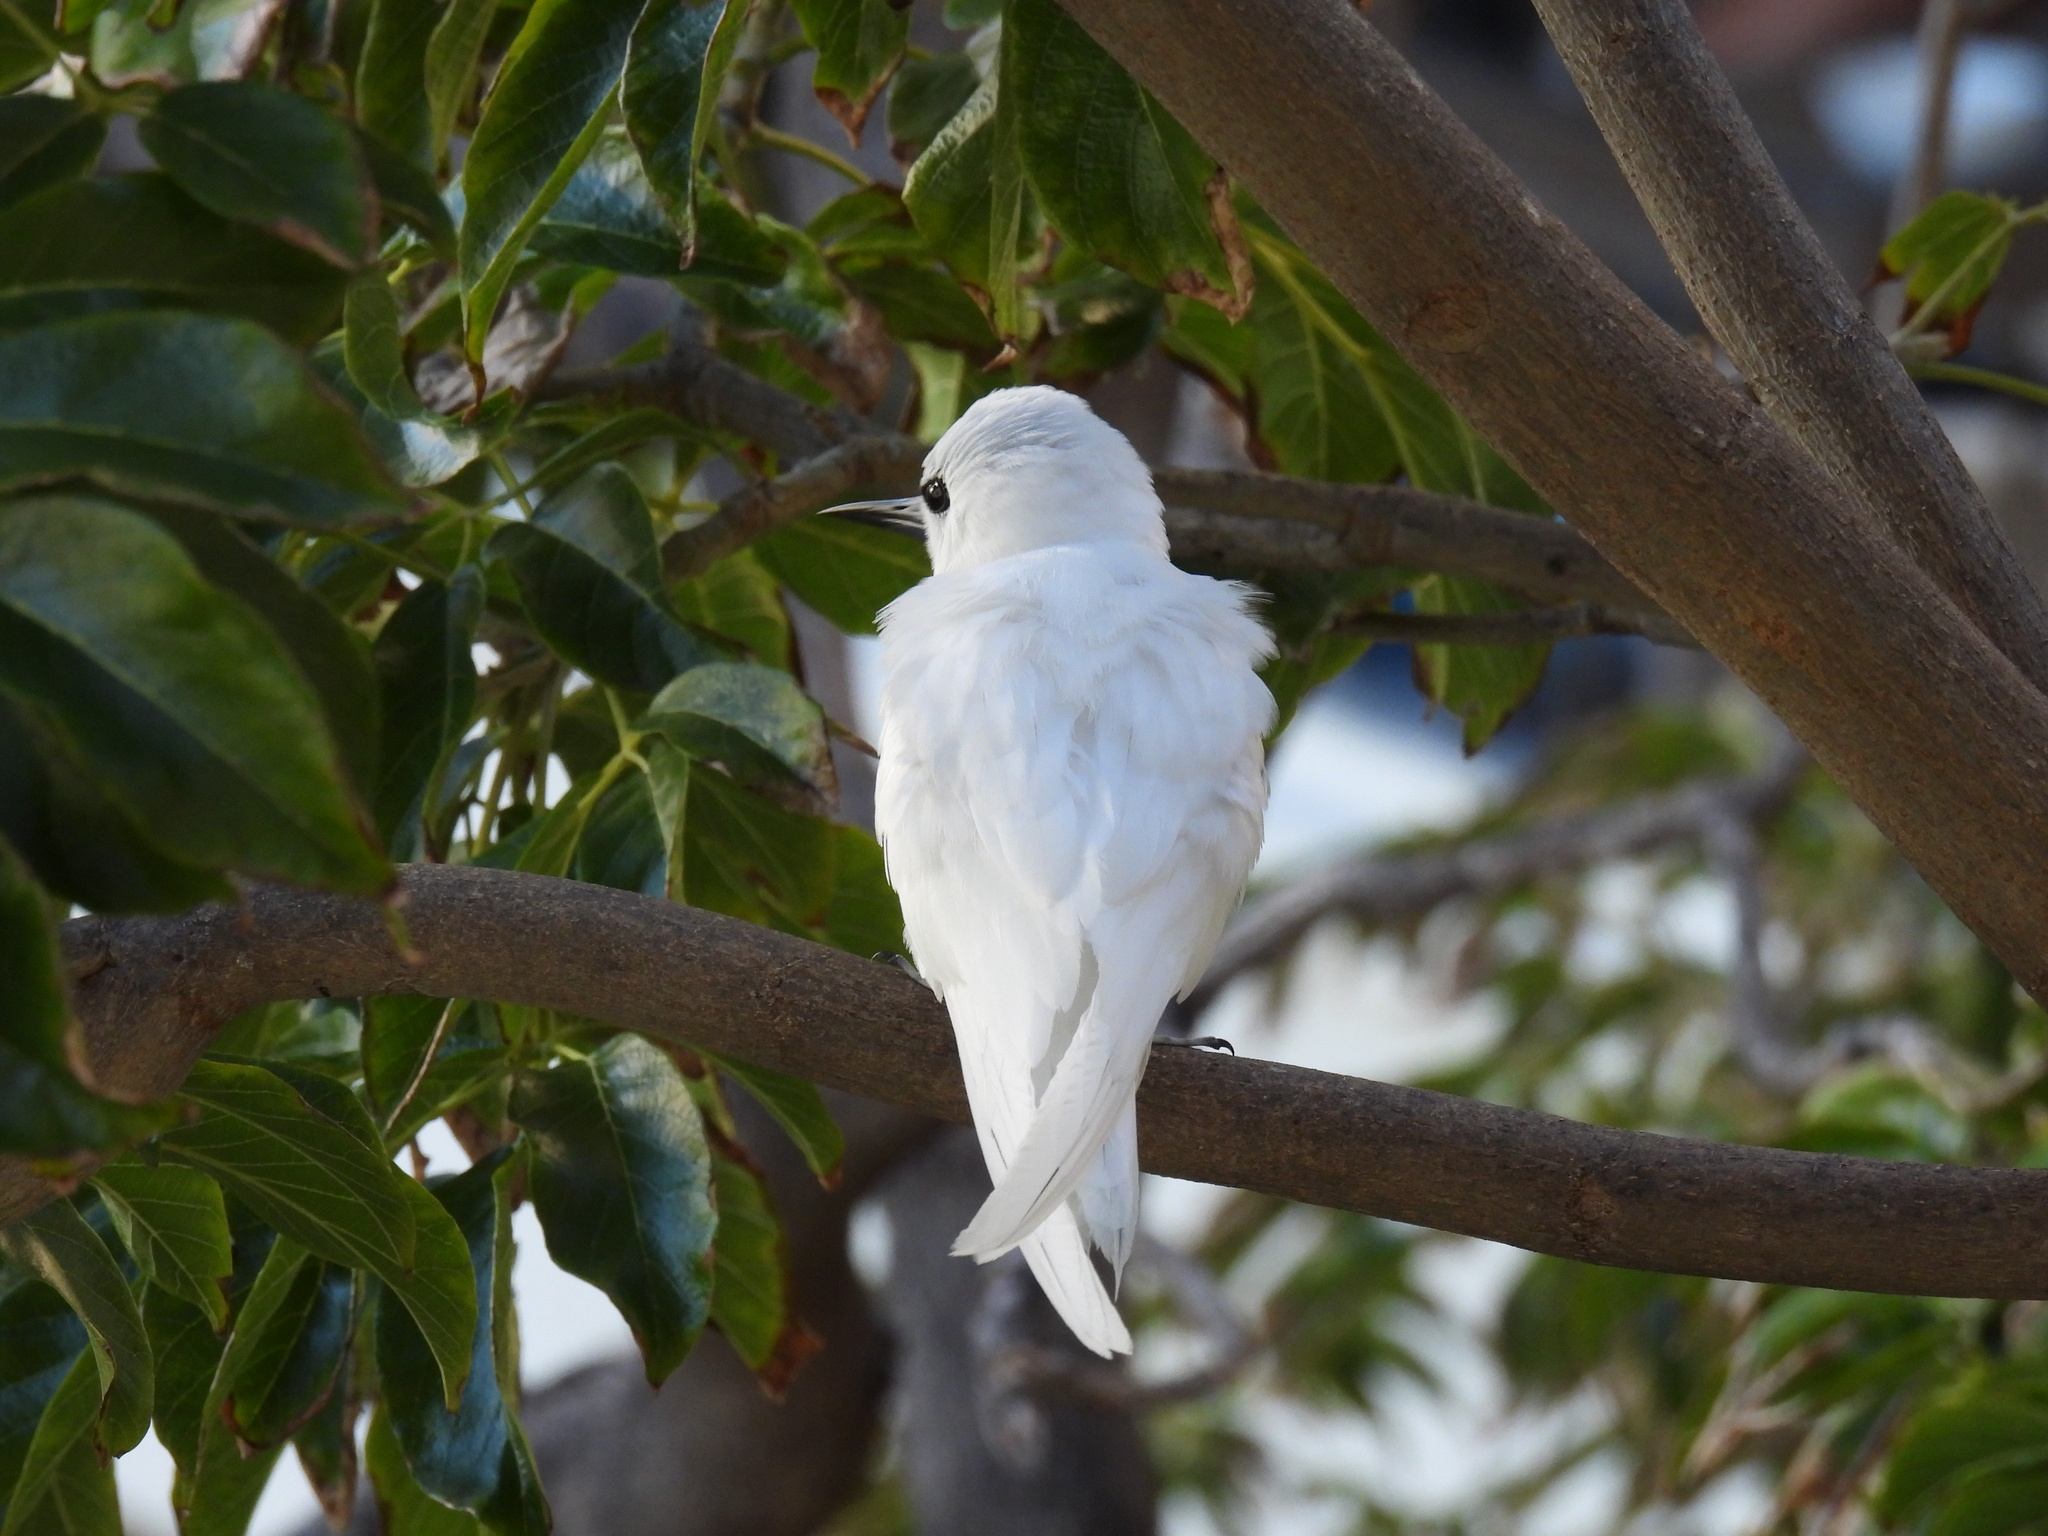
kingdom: Animalia
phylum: Chordata
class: Aves
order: Charadriiformes
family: Laridae
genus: Gygis
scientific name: Gygis alba
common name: White tern
